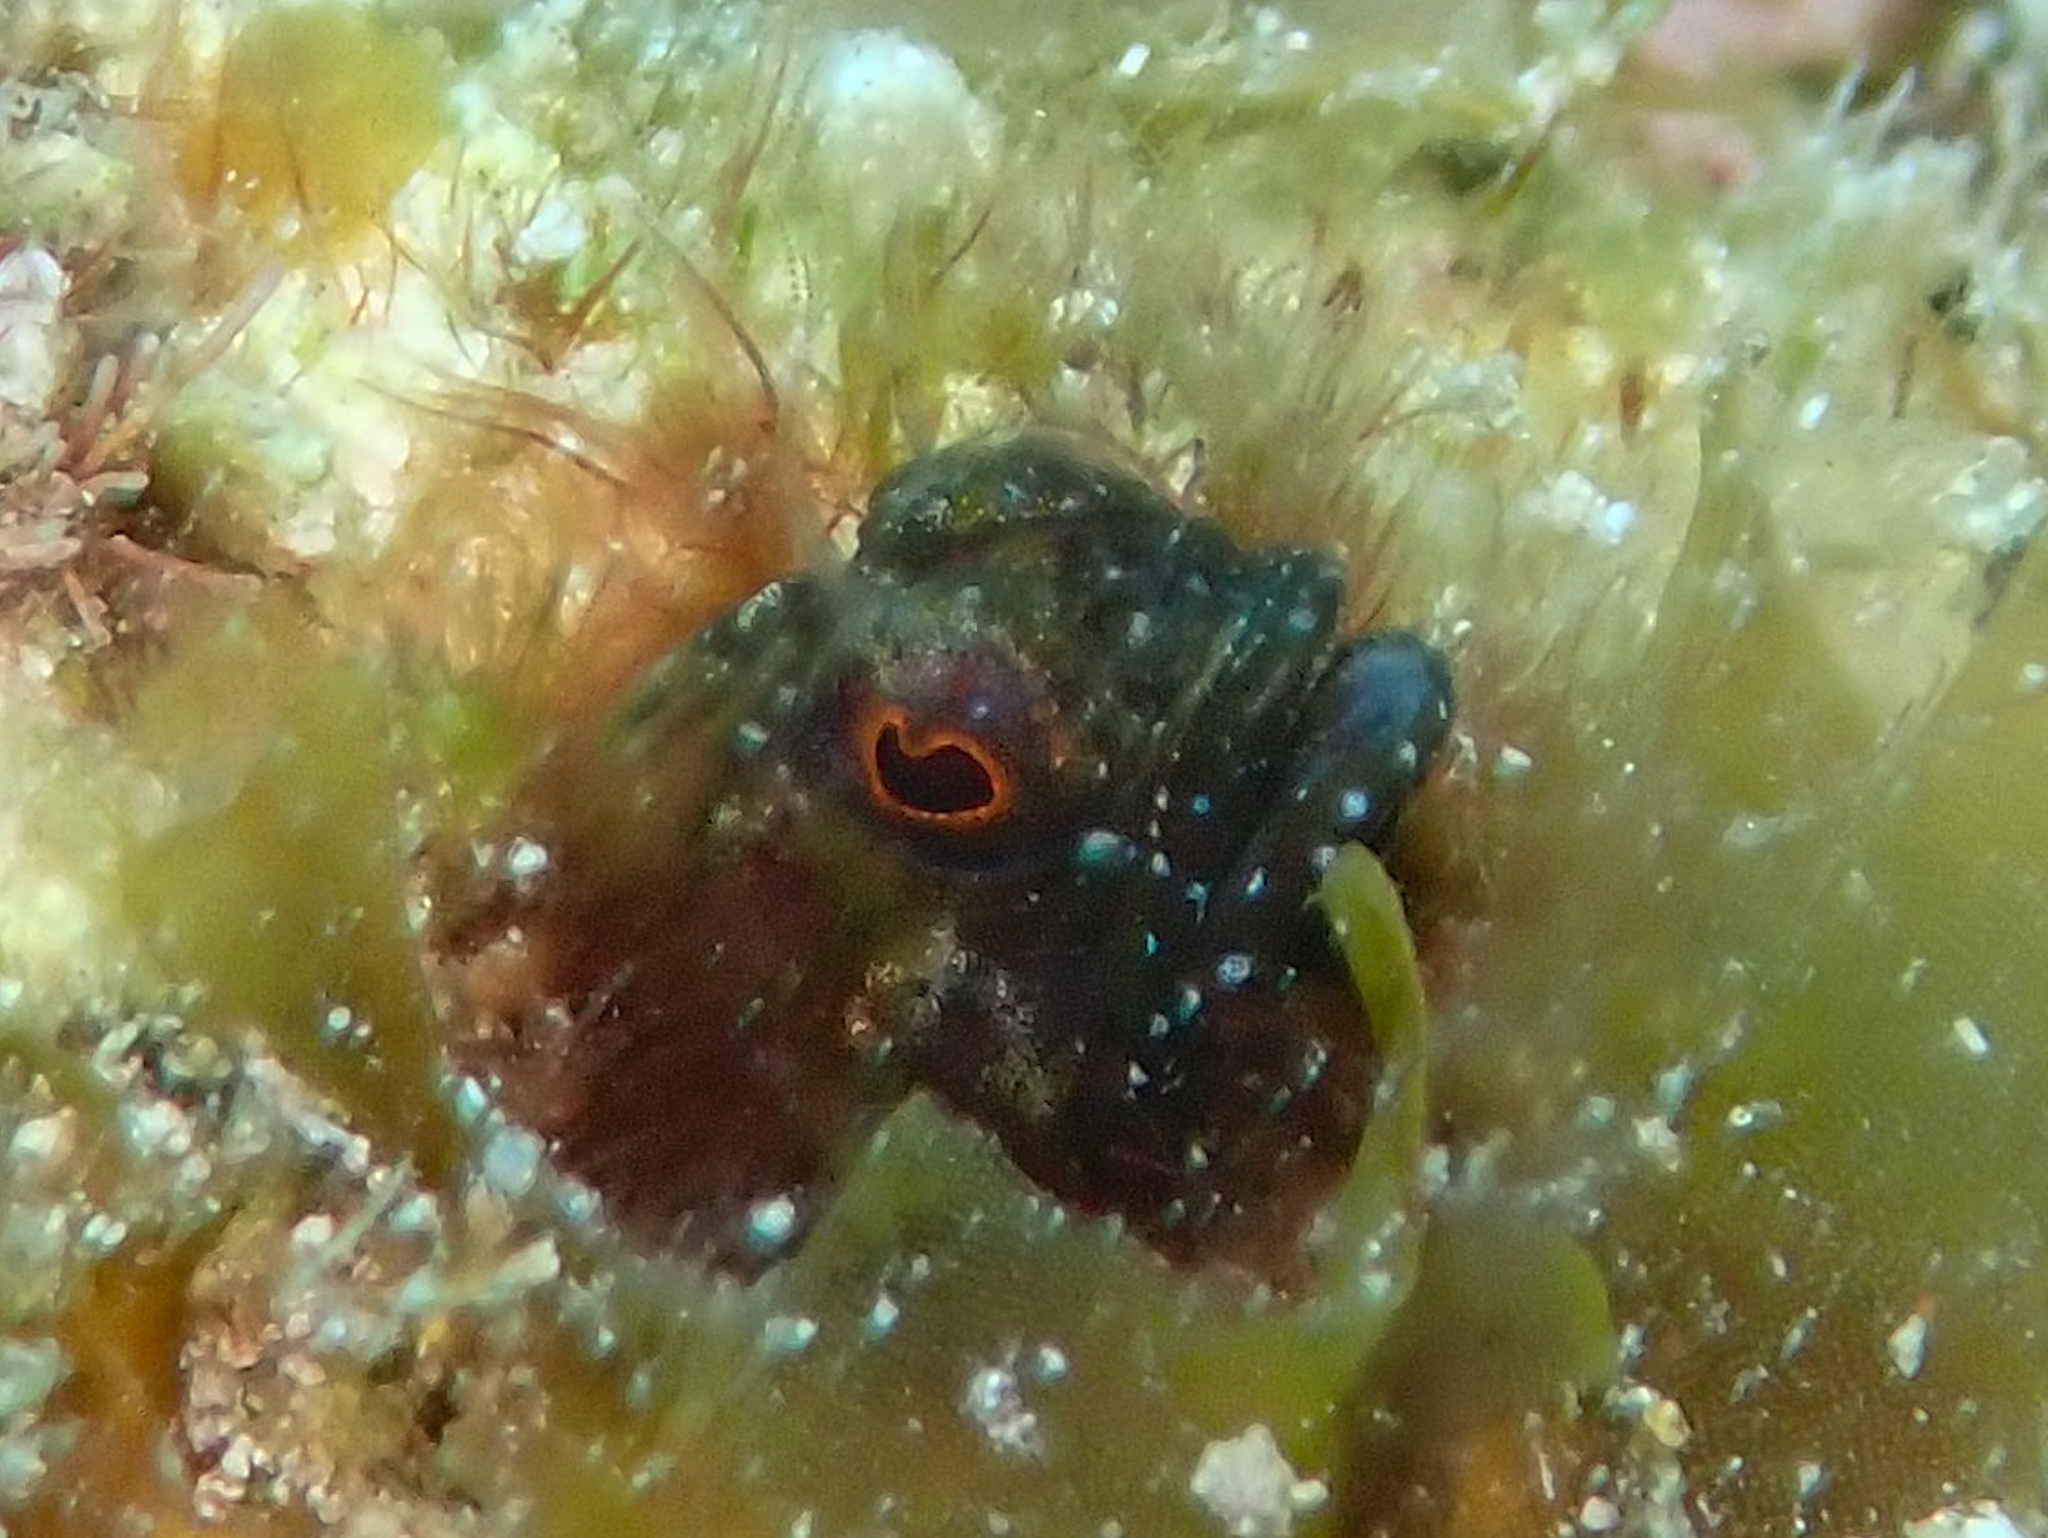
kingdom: Animalia
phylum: Chordata
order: Perciformes
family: Chaenopsidae
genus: Emblemaria
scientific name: Emblemaria pandionis
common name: Sailfin blenny
